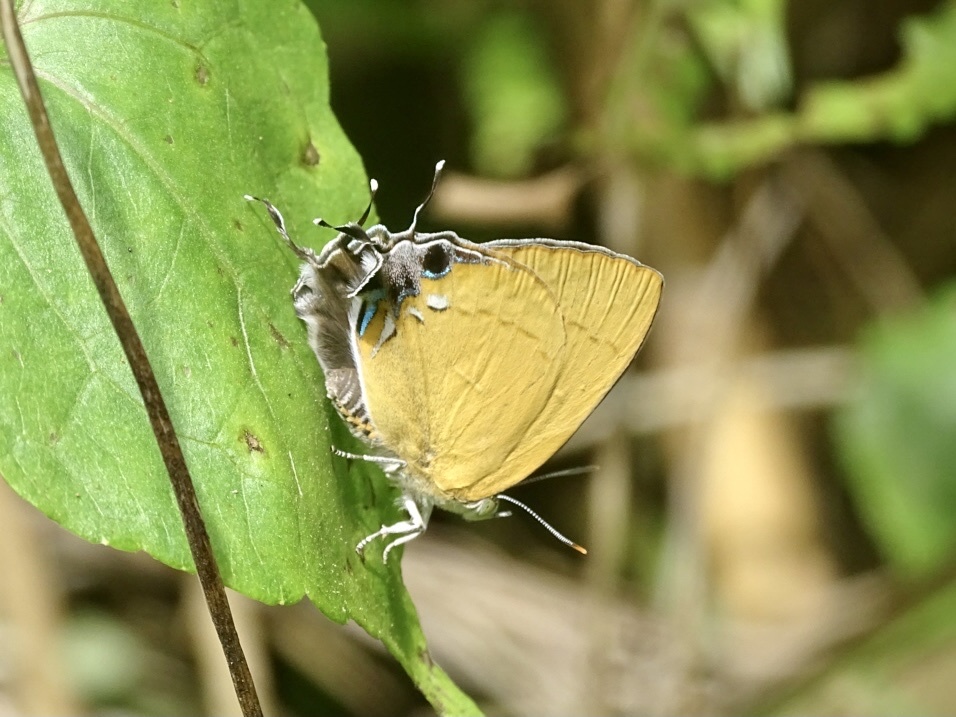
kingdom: Animalia
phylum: Arthropoda
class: Insecta
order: Lepidoptera
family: Lycaenidae
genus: Remelana
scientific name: Remelana jangala
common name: Chocolate royal
